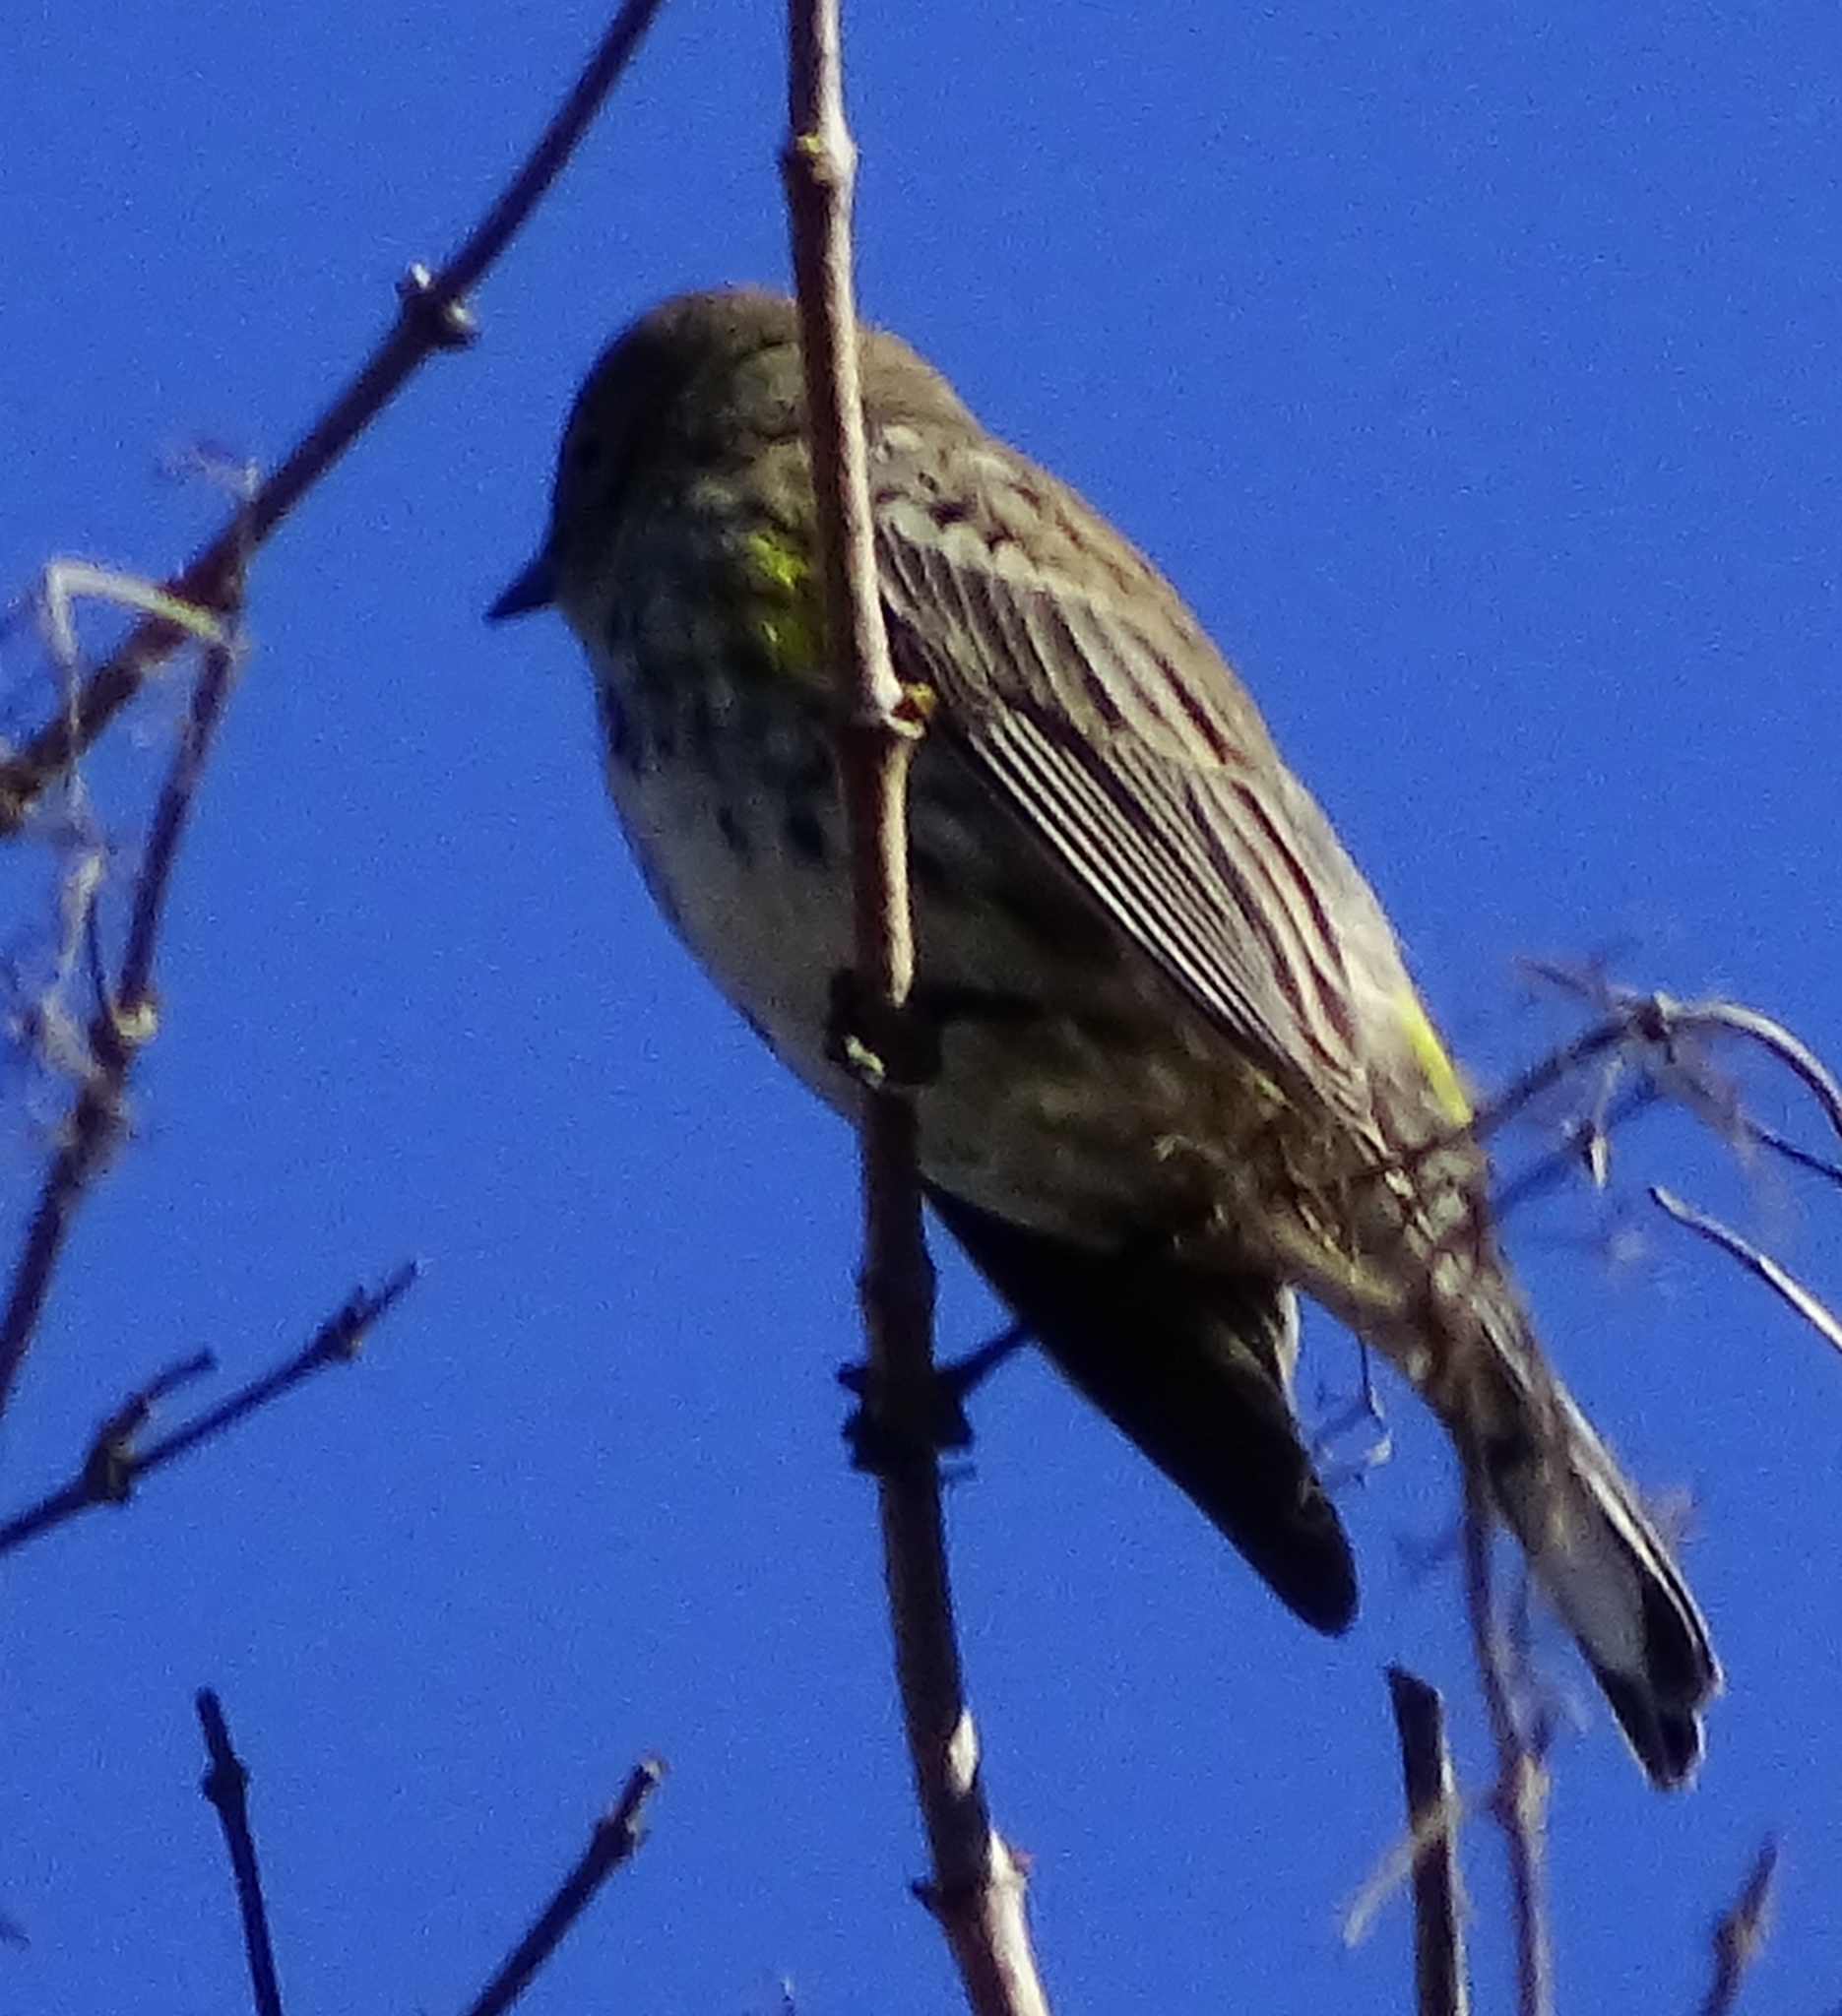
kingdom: Animalia
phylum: Chordata
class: Aves
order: Passeriformes
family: Parulidae
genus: Setophaga
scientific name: Setophaga auduboni
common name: Audubon's warbler
